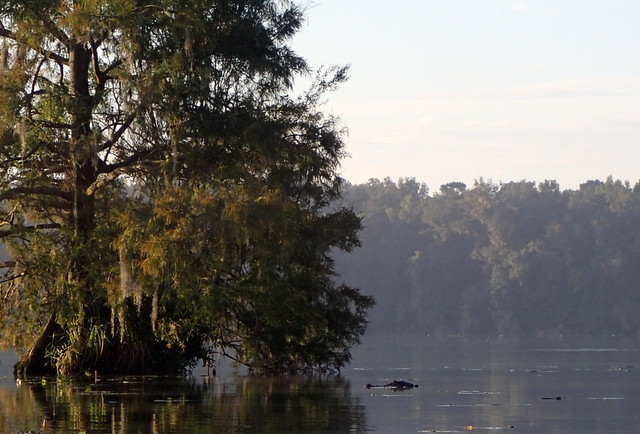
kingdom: Animalia
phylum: Chordata
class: Crocodylia
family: Alligatoridae
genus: Alligator
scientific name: Alligator mississippiensis
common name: American alligator
